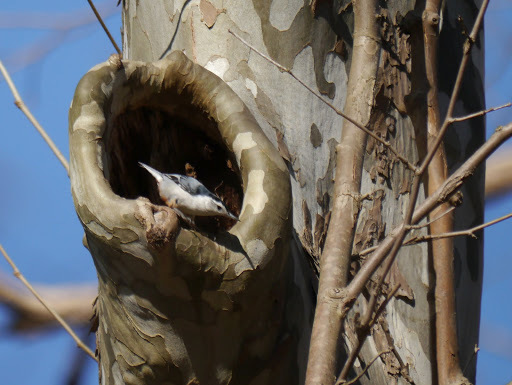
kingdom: Animalia
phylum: Chordata
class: Aves
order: Passeriformes
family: Sittidae
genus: Sitta
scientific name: Sitta carolinensis
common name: White-breasted nuthatch
